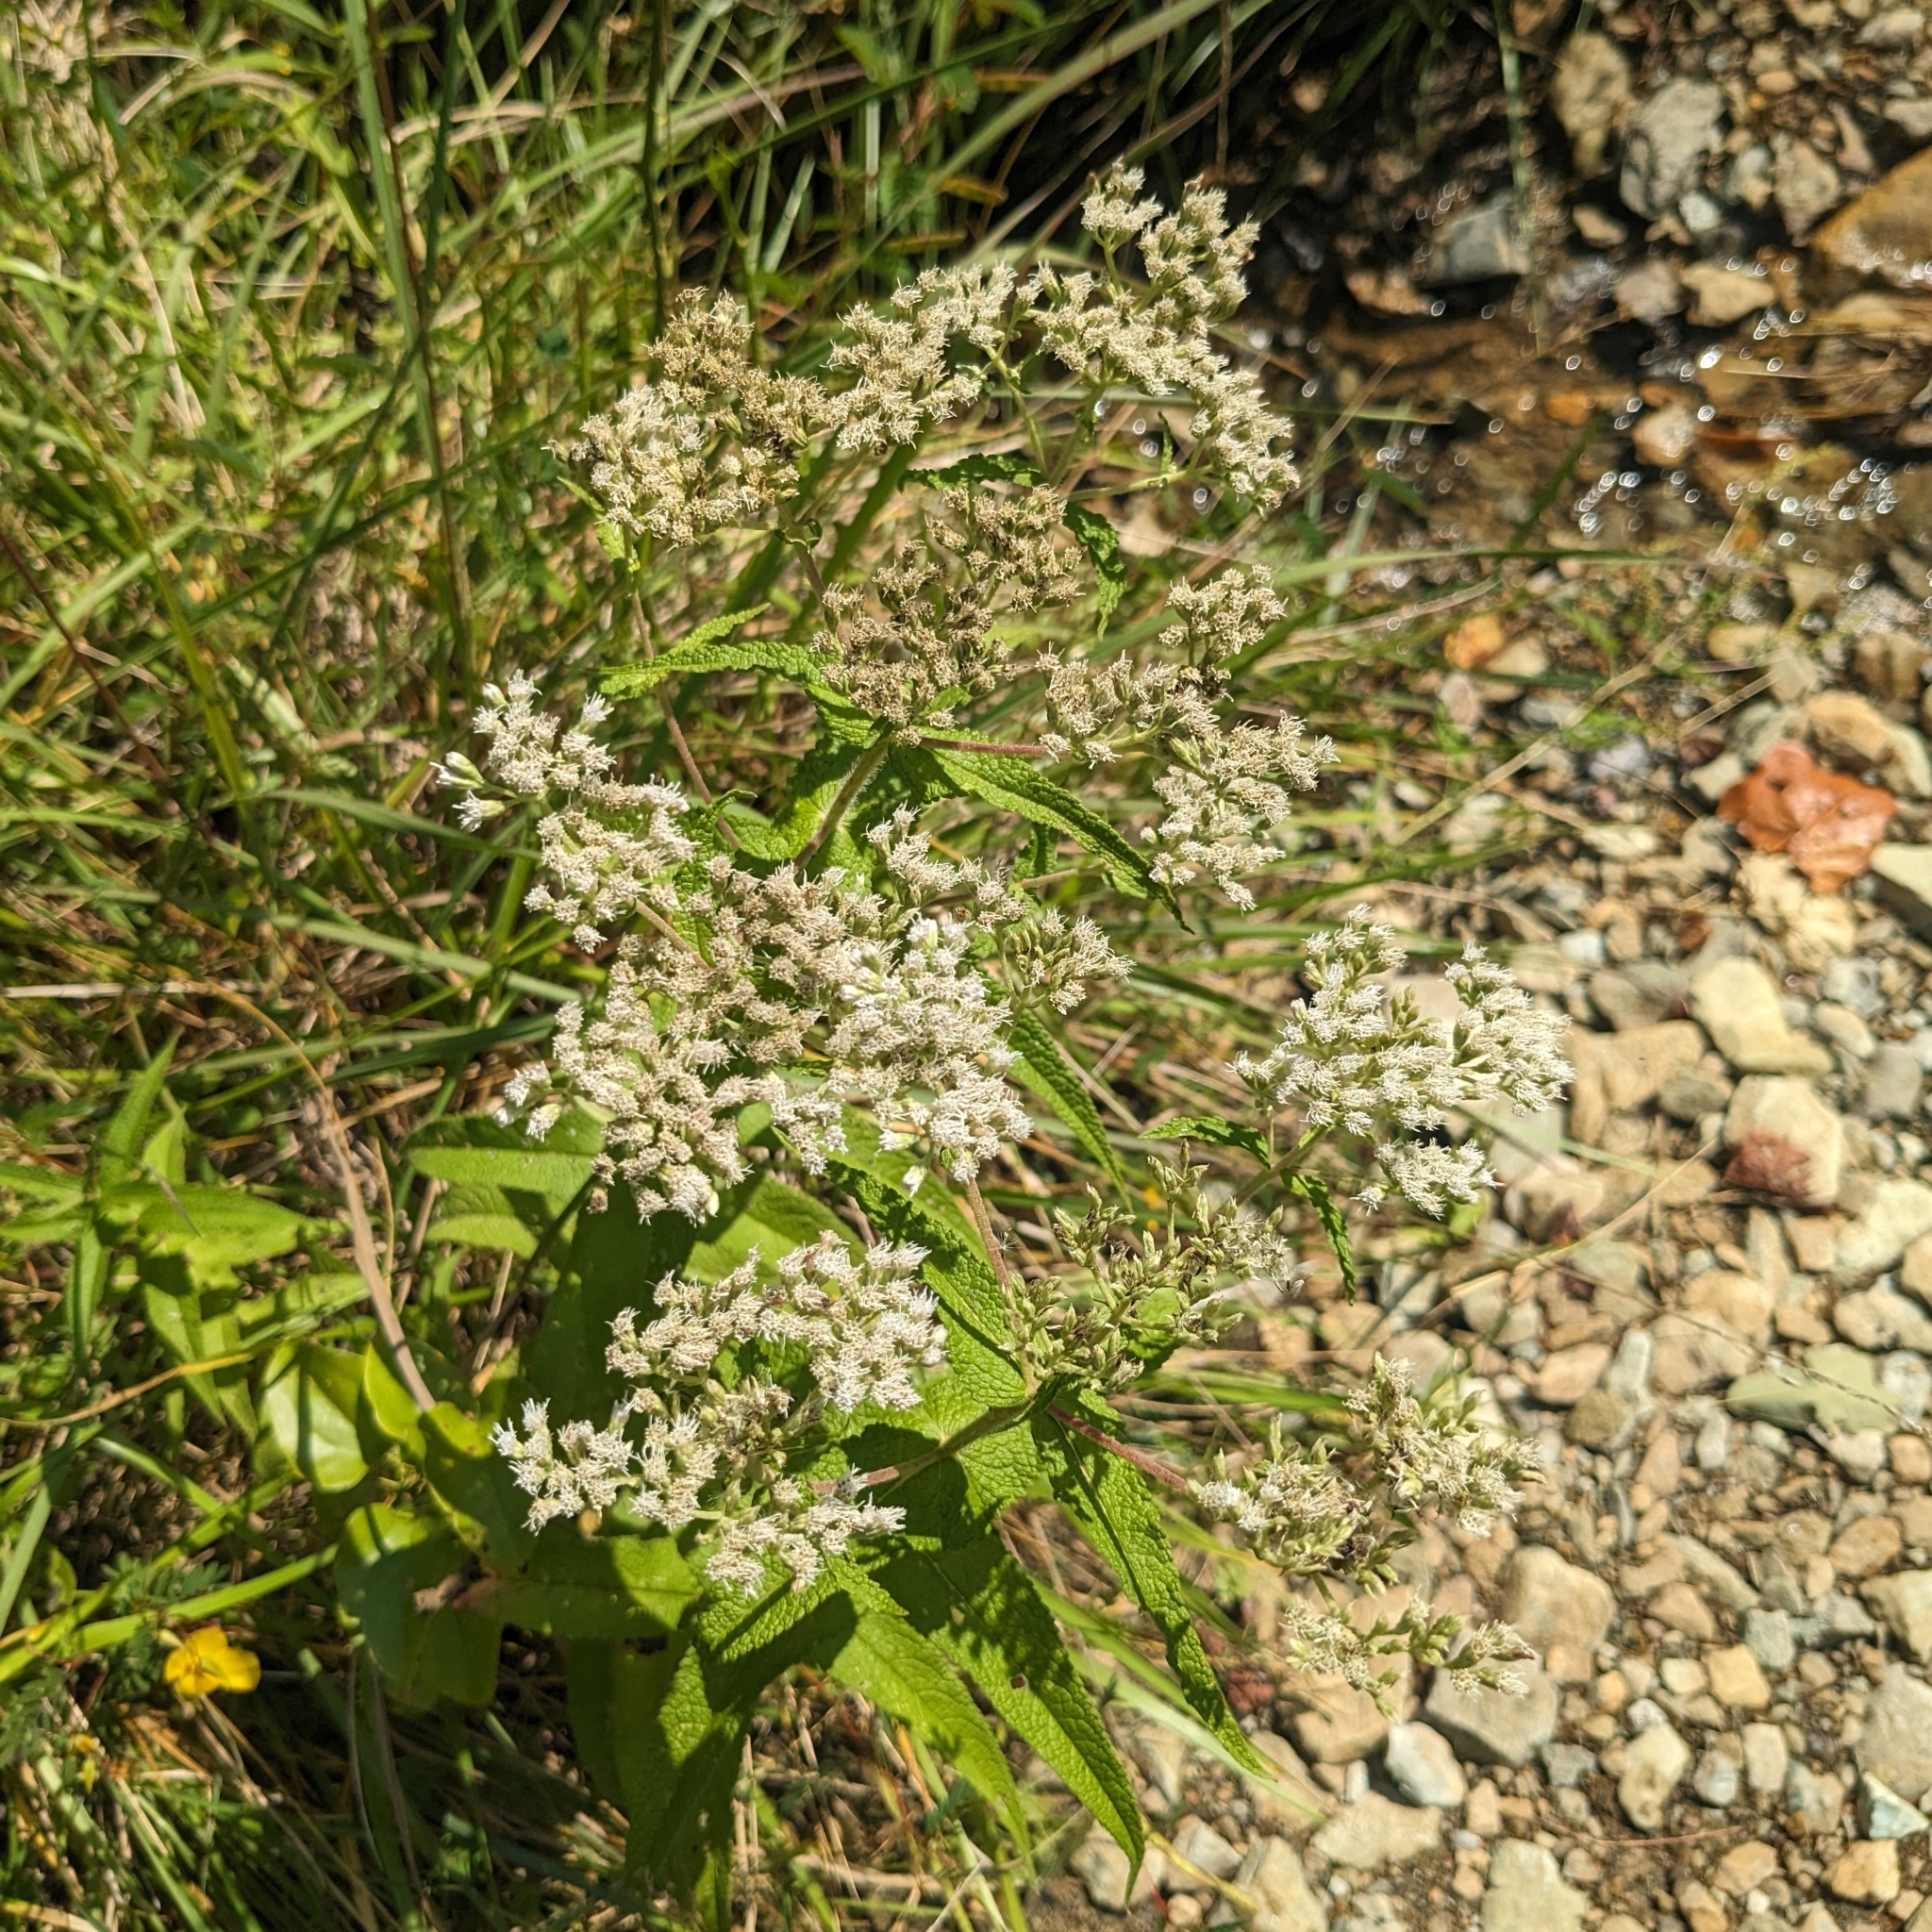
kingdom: Plantae
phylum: Tracheophyta
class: Magnoliopsida
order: Asterales
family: Asteraceae
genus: Eupatorium
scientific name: Eupatorium perfoliatum
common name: Boneset
